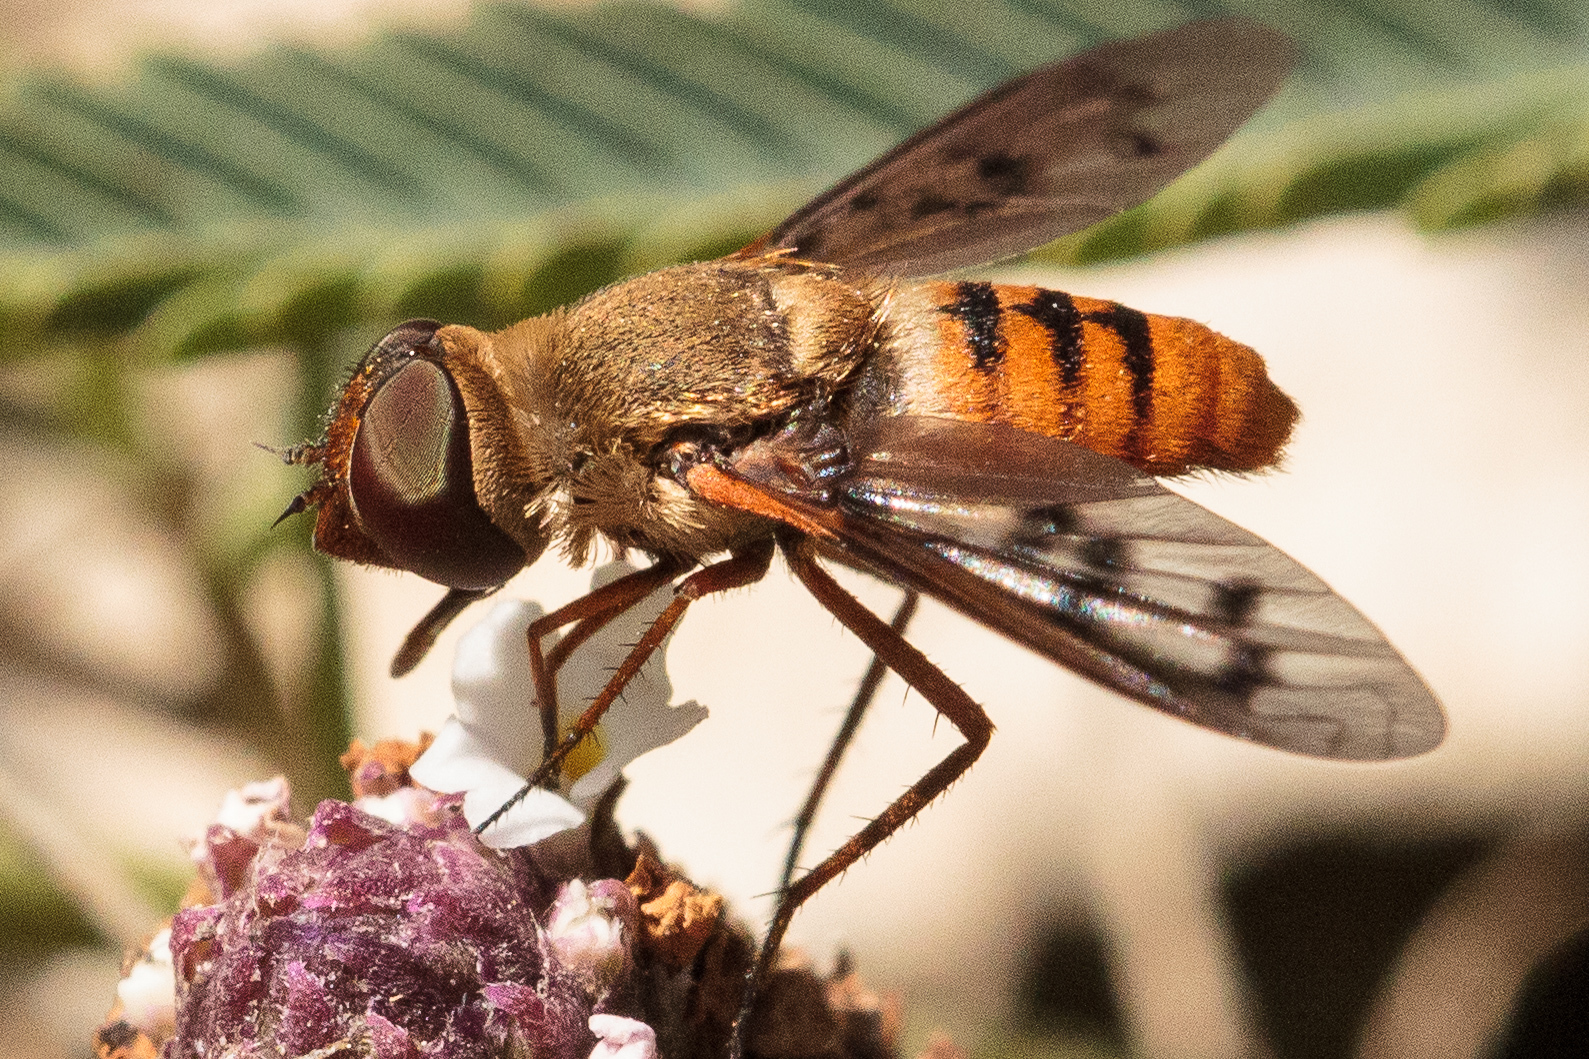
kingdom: Animalia
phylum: Arthropoda
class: Insecta
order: Diptera
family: Bombyliidae
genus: Neodiplocampta
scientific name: Neodiplocampta miranda
